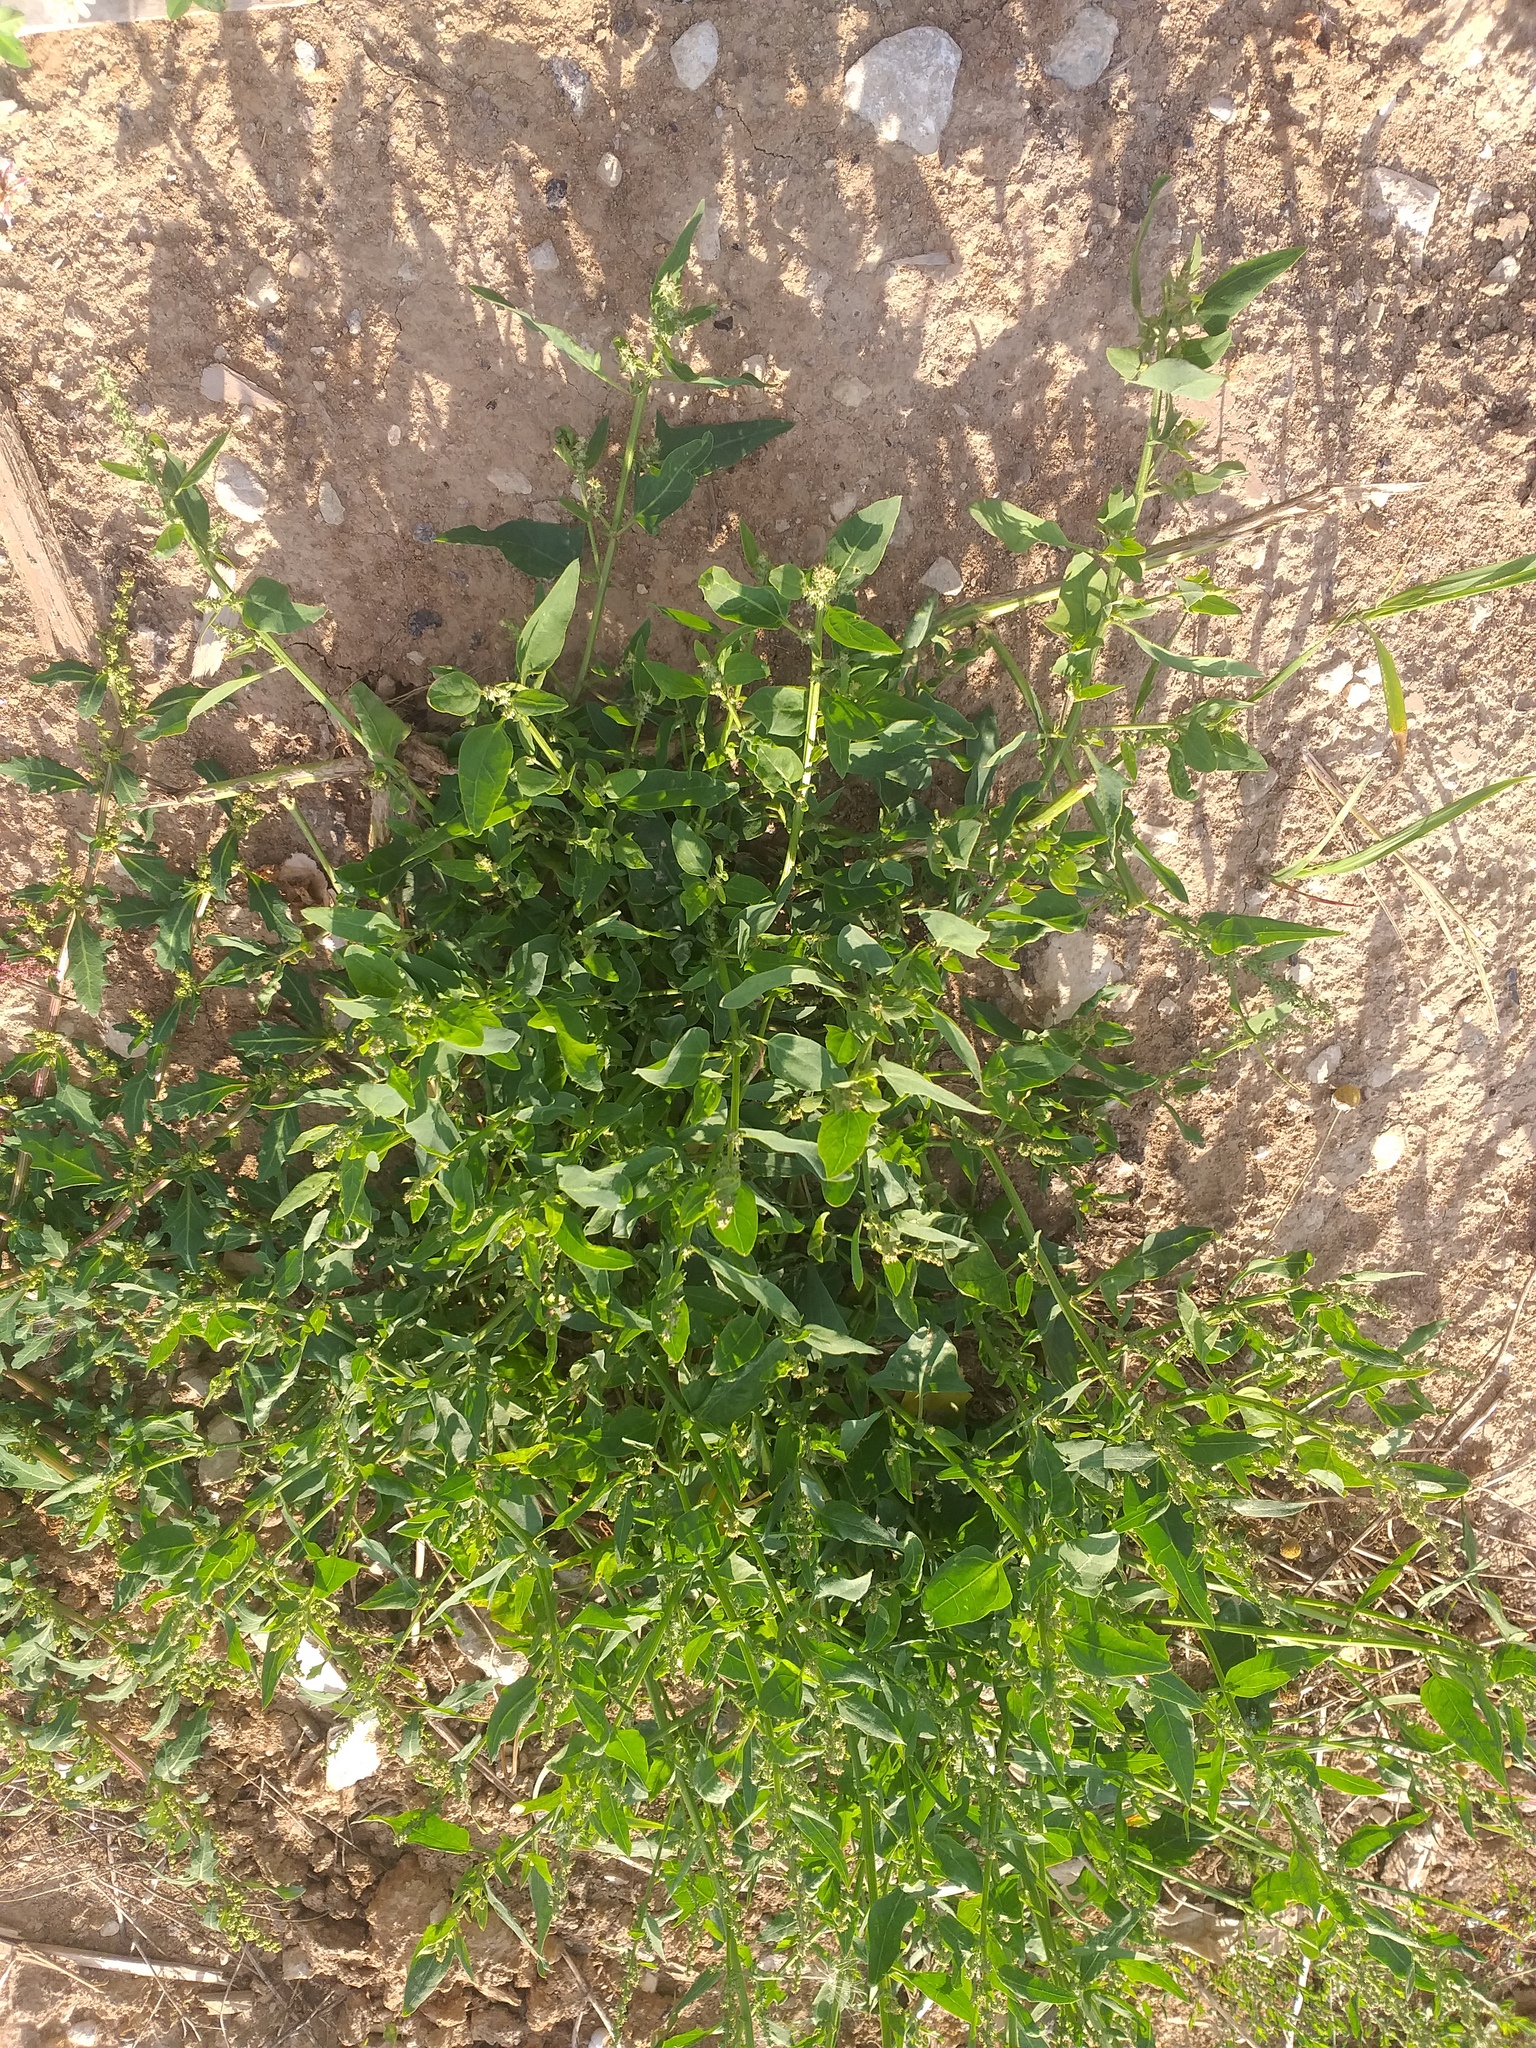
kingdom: Plantae
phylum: Tracheophyta
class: Magnoliopsida
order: Caryophyllales
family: Amaranthaceae
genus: Atriplex
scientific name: Atriplex prostrata
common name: Spear-leaved orache
